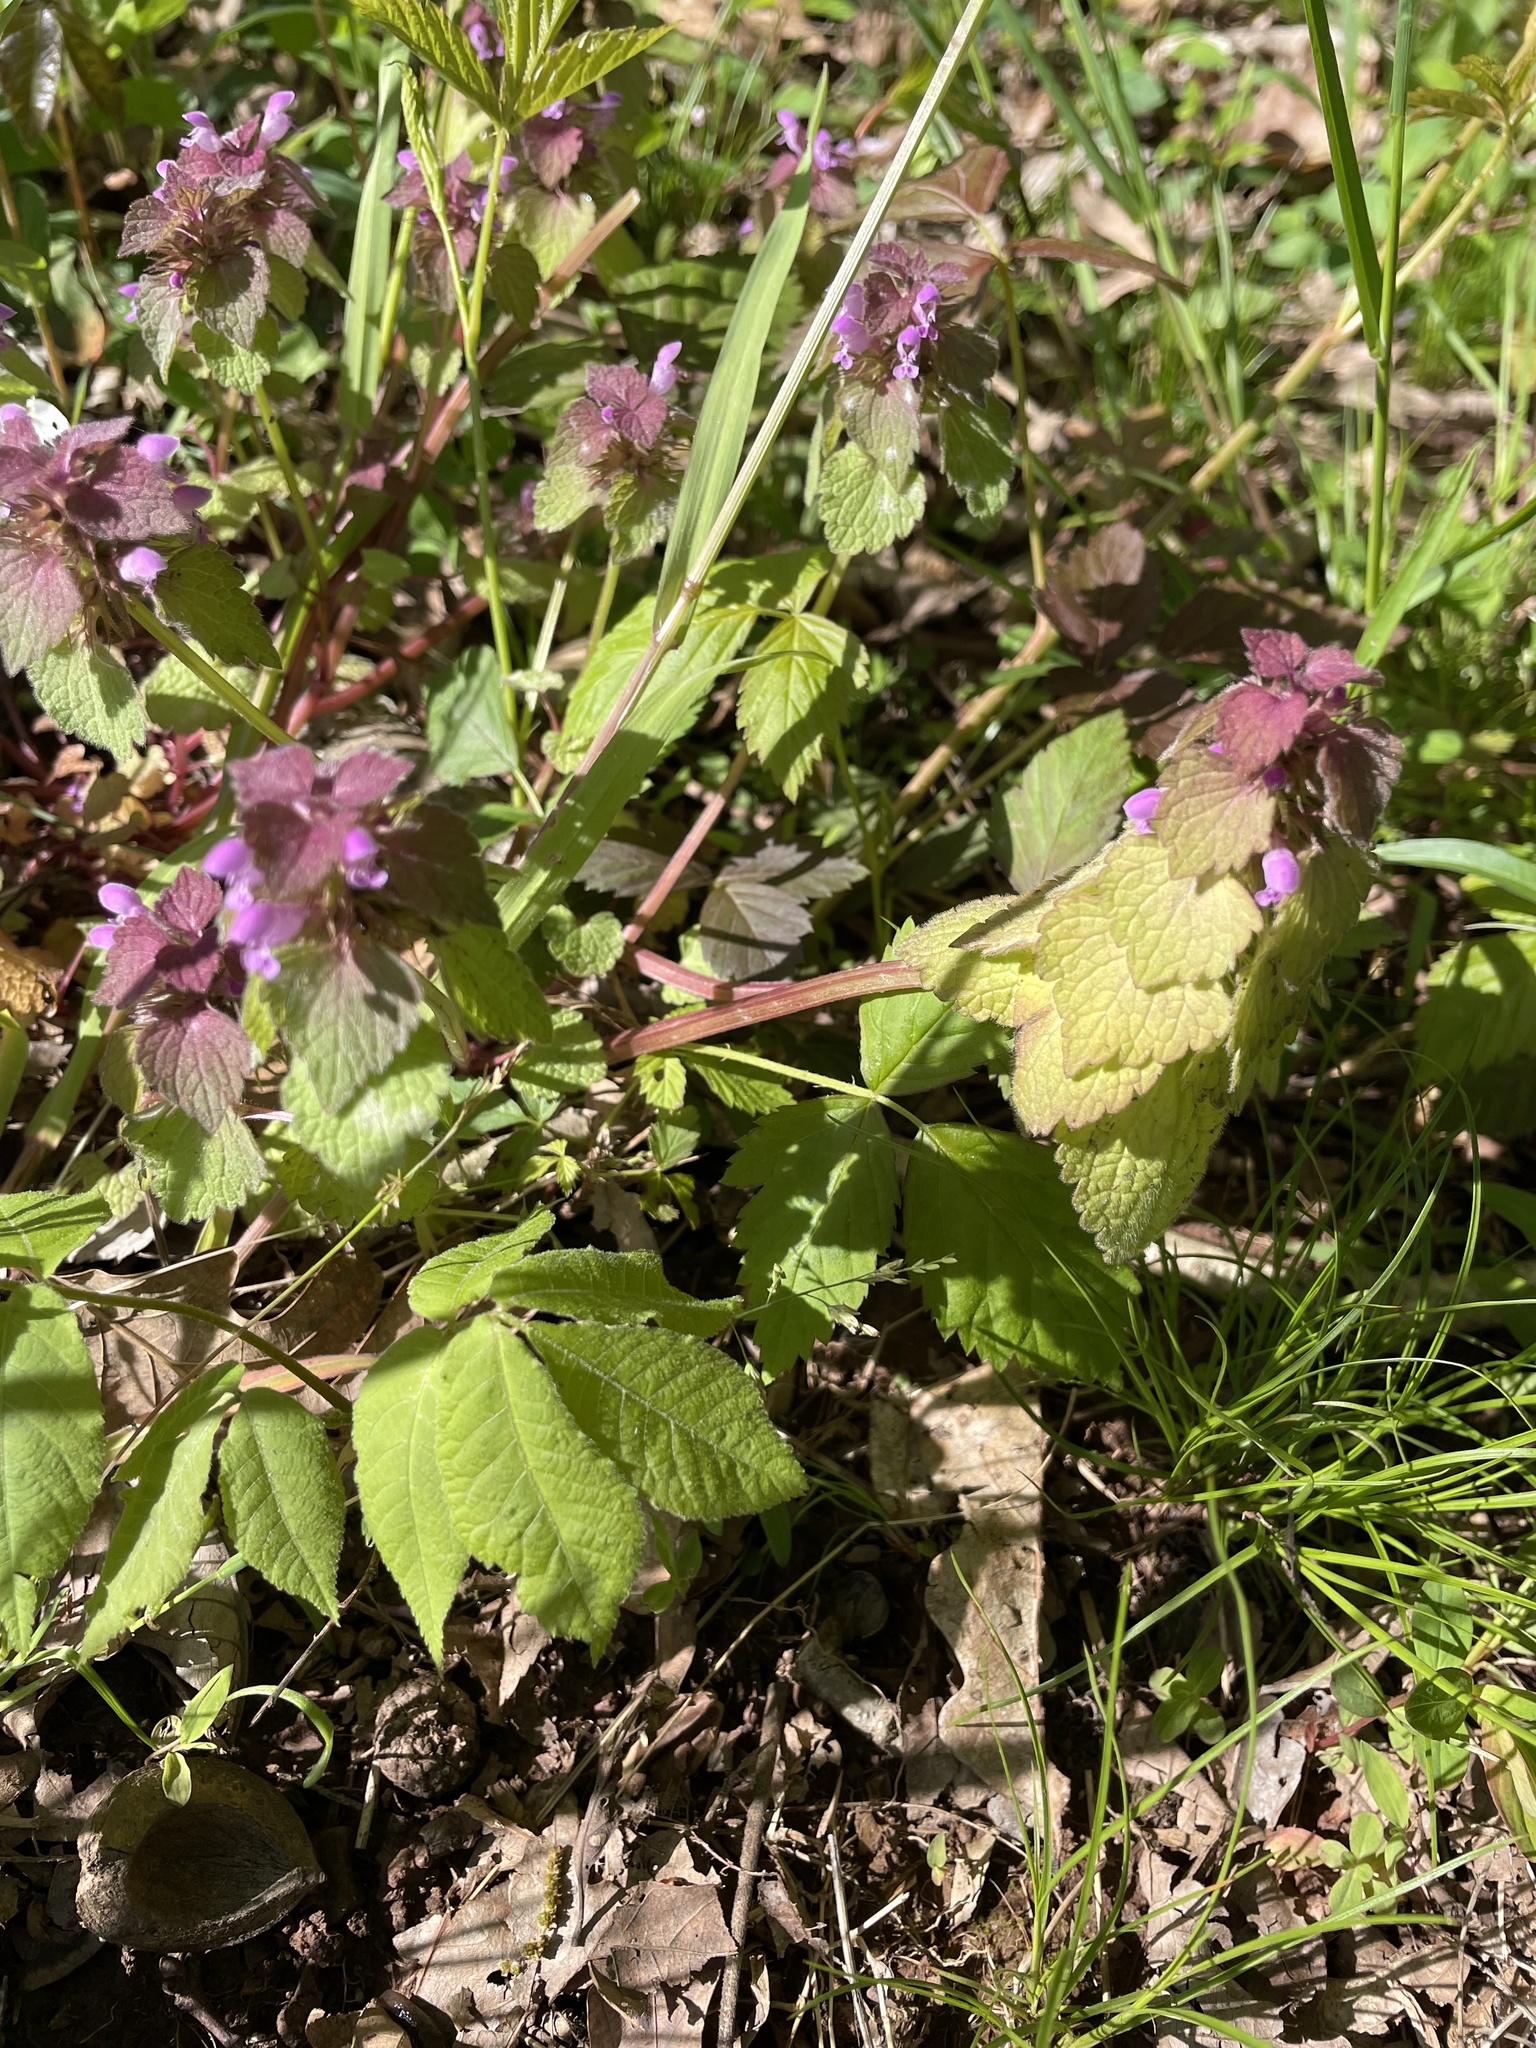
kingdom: Plantae
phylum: Tracheophyta
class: Magnoliopsida
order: Lamiales
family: Lamiaceae
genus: Lamium
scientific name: Lamium purpureum
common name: Red dead-nettle
